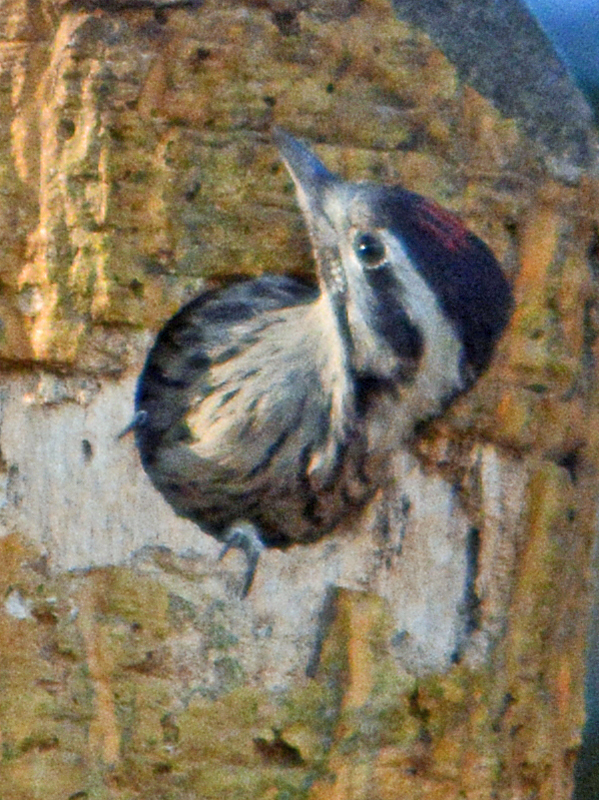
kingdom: Animalia
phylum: Chordata
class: Aves
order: Piciformes
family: Picidae
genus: Dryobates
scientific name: Dryobates scalaris
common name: Ladder-backed woodpecker
